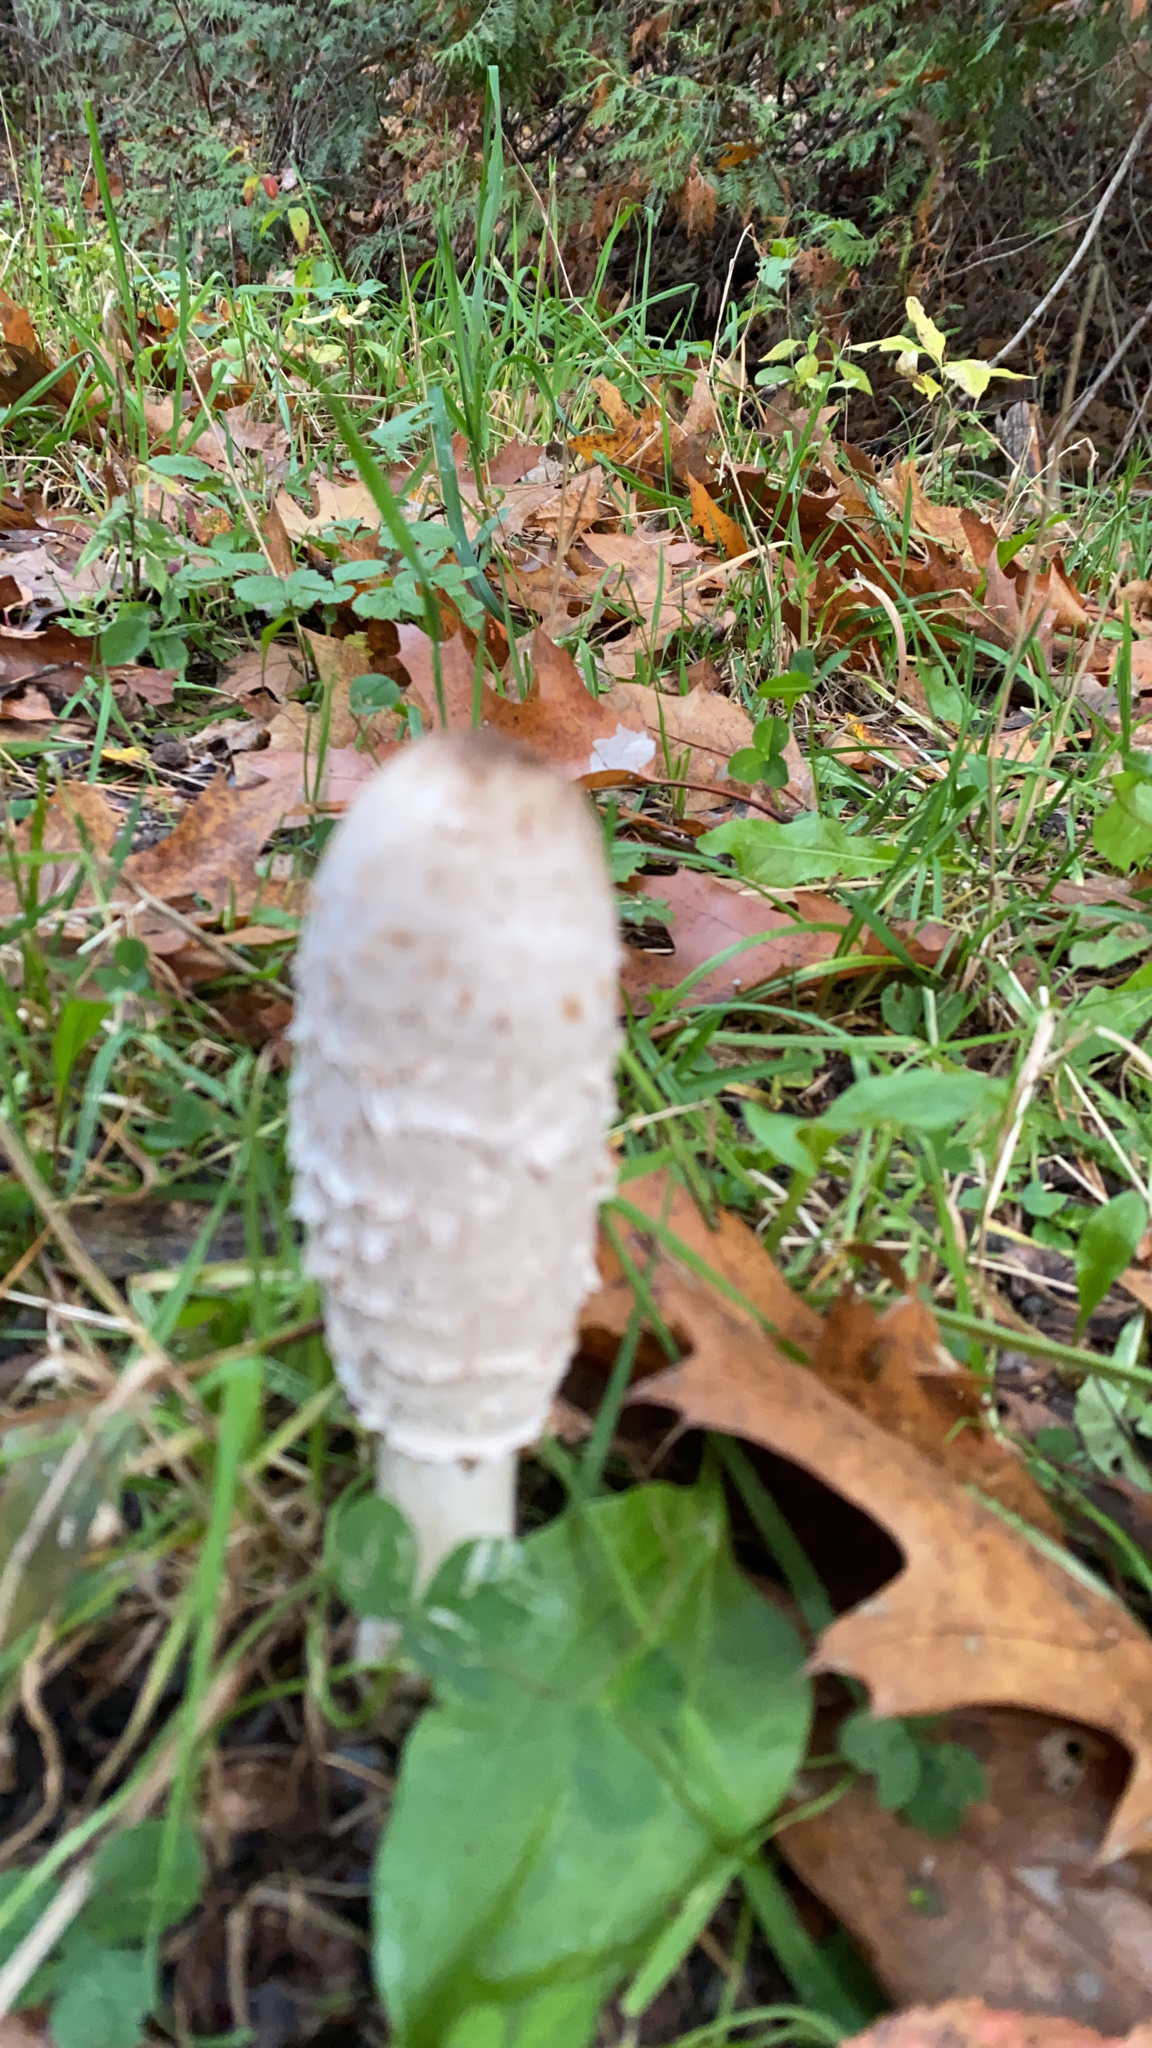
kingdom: Fungi
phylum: Basidiomycota
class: Agaricomycetes
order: Agaricales
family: Agaricaceae
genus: Coprinus
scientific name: Coprinus comatus
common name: Lawyer's wig
